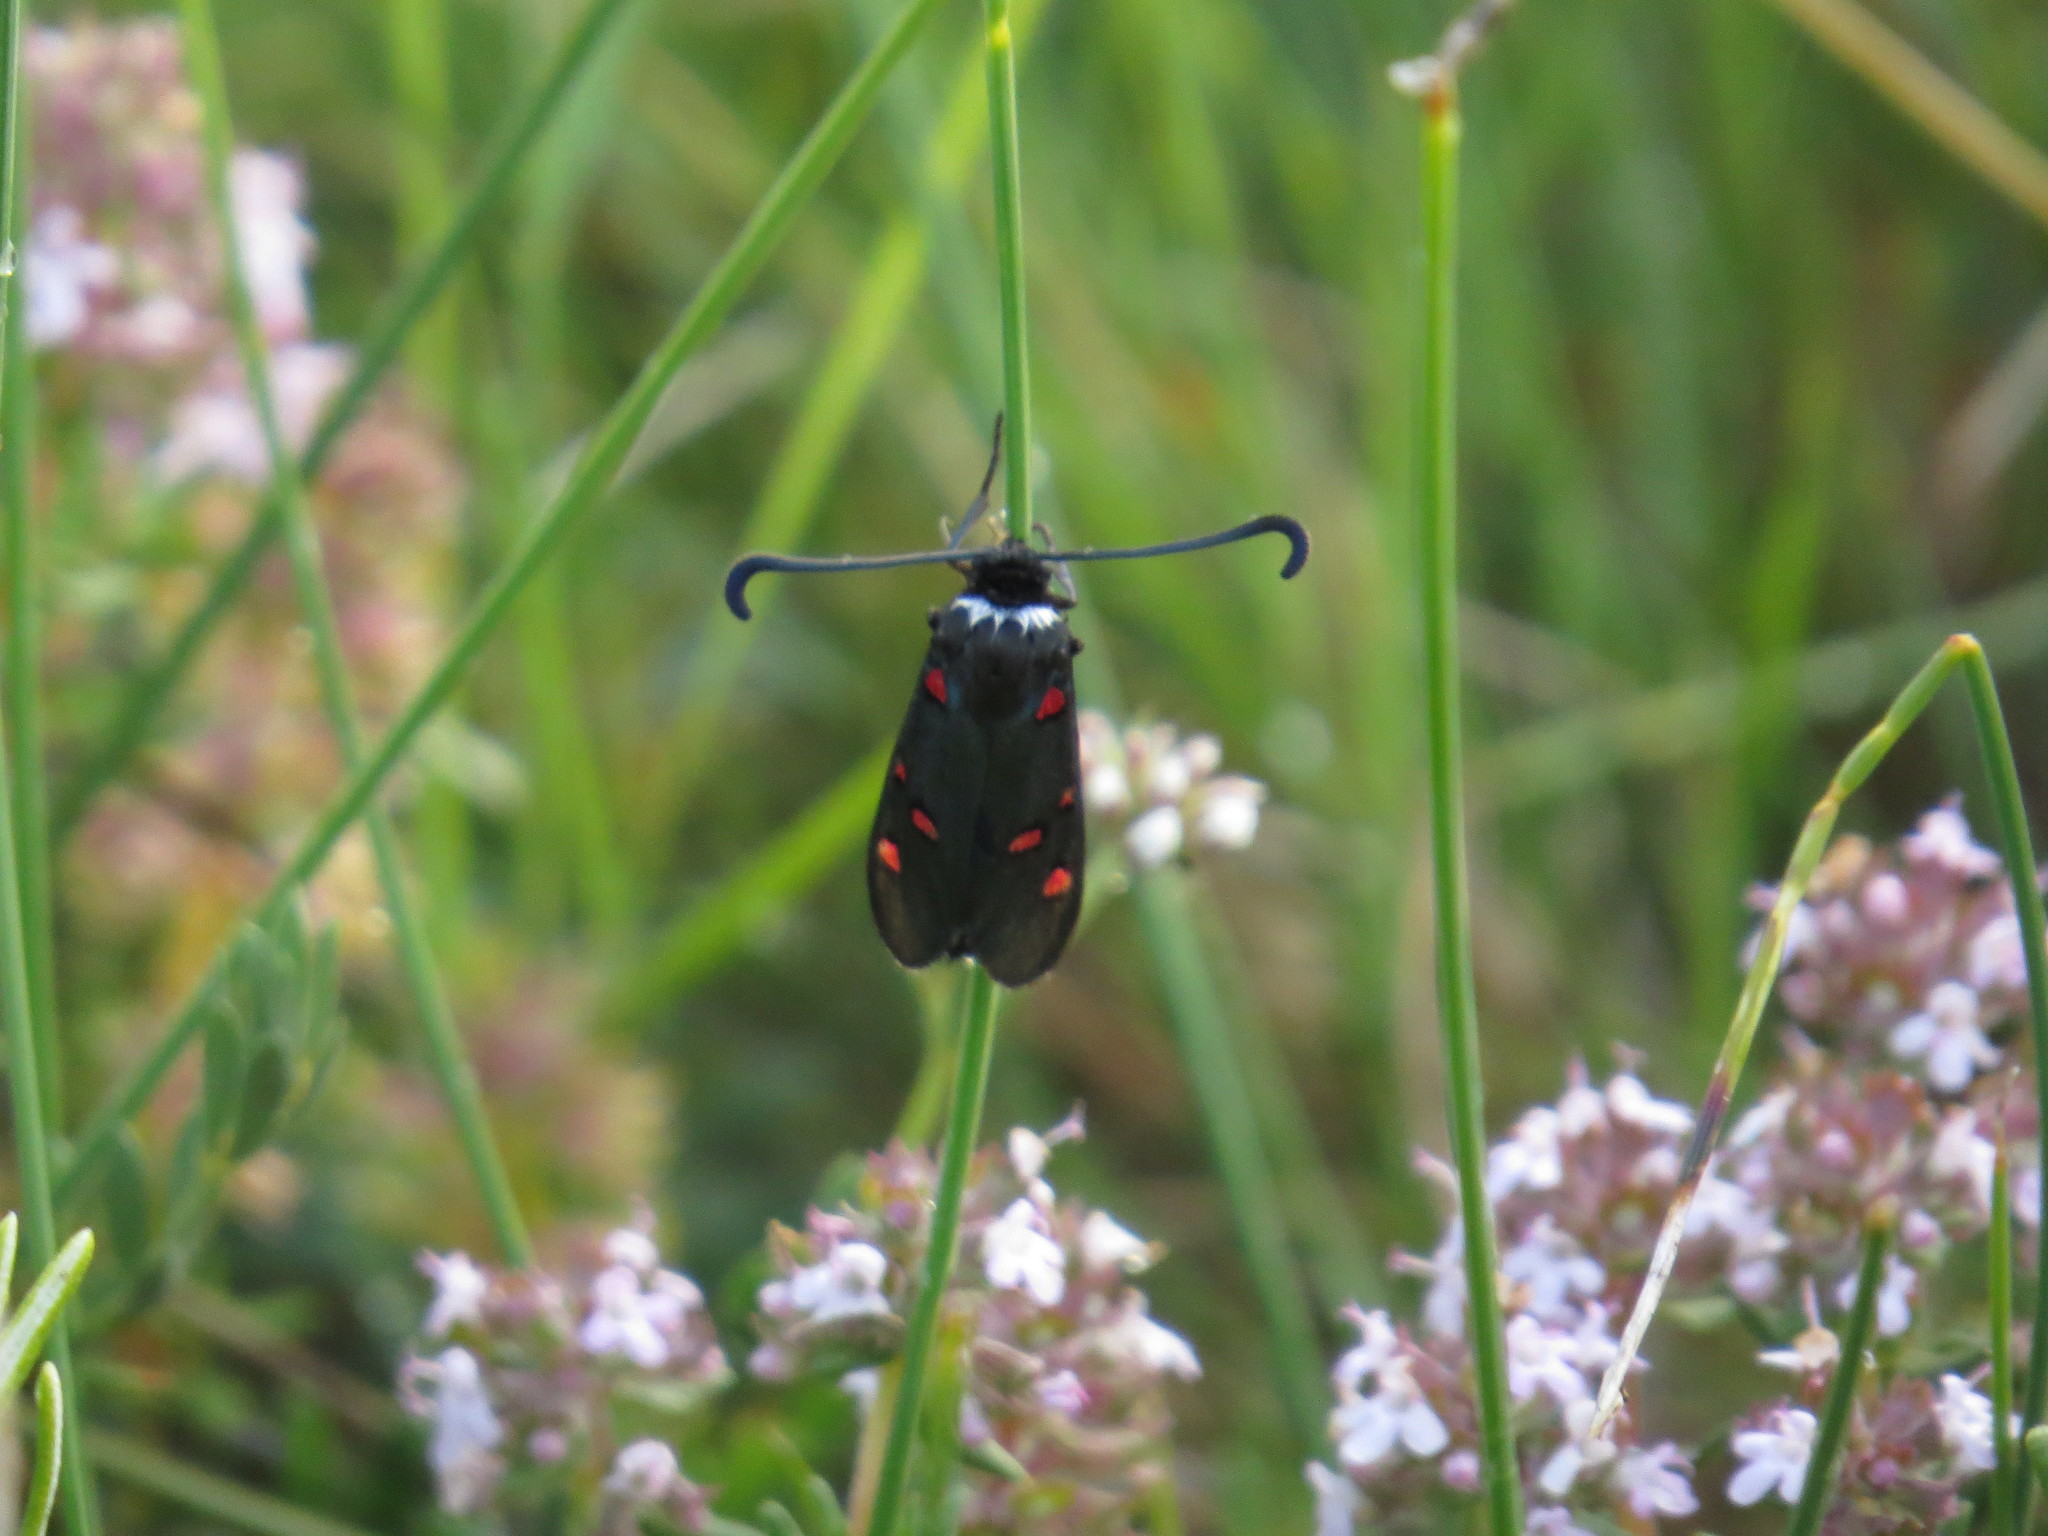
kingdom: Animalia
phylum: Arthropoda
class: Insecta
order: Lepidoptera
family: Zygaenidae
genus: Zygaena
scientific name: Zygaena lavandulae
